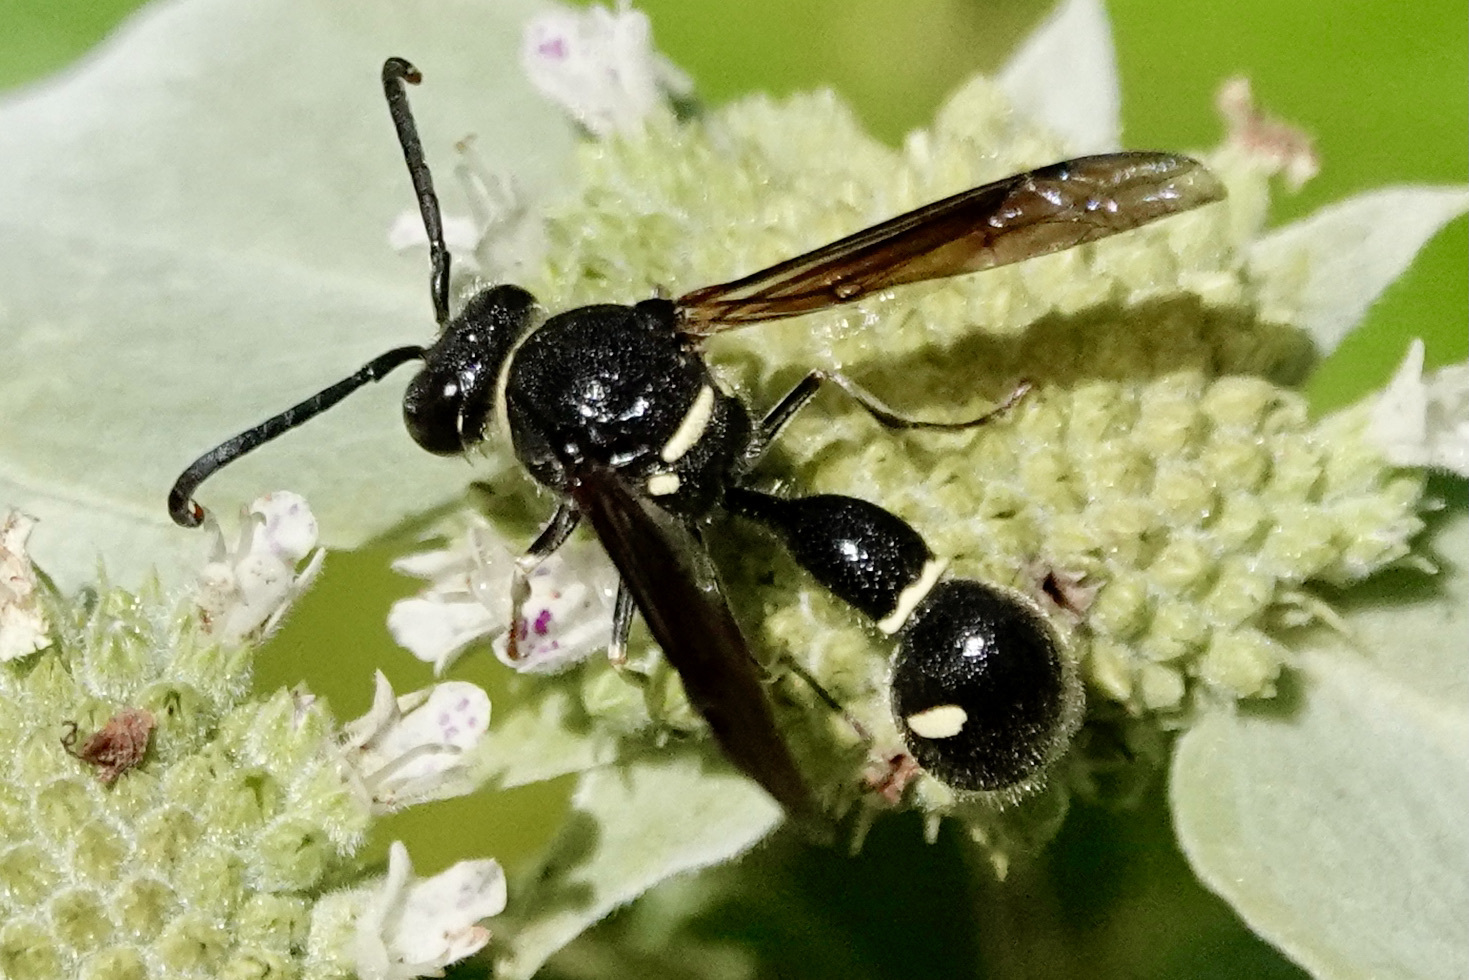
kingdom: Animalia
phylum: Arthropoda
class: Insecta
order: Hymenoptera
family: Vespidae
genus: Eumenes
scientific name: Eumenes fraternus
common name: Fraternal potter wasp
